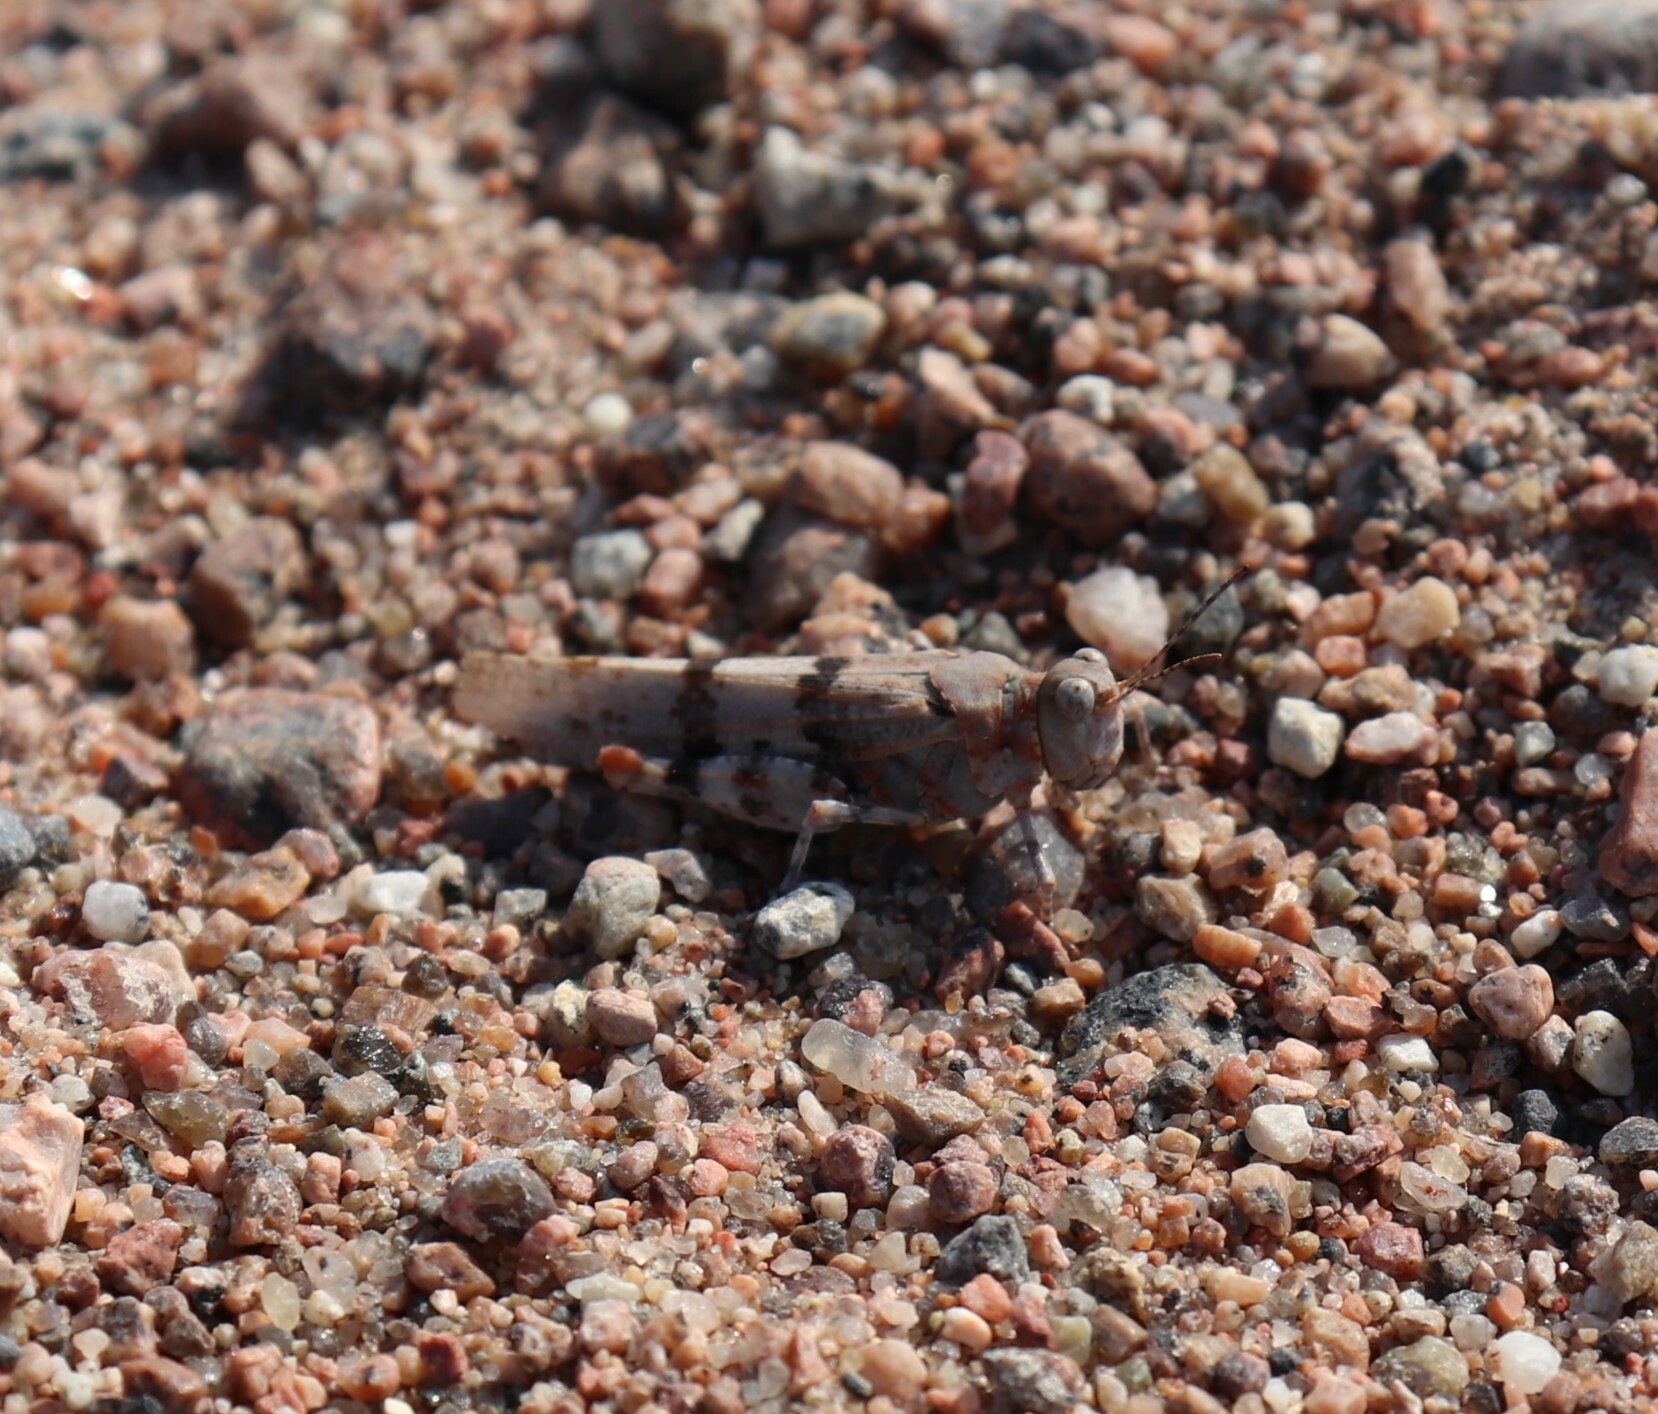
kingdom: Animalia
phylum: Arthropoda
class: Insecta
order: Orthoptera
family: Acrididae
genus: Sphingonotus
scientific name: Sphingonotus caerulans
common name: Blue-winged locust
